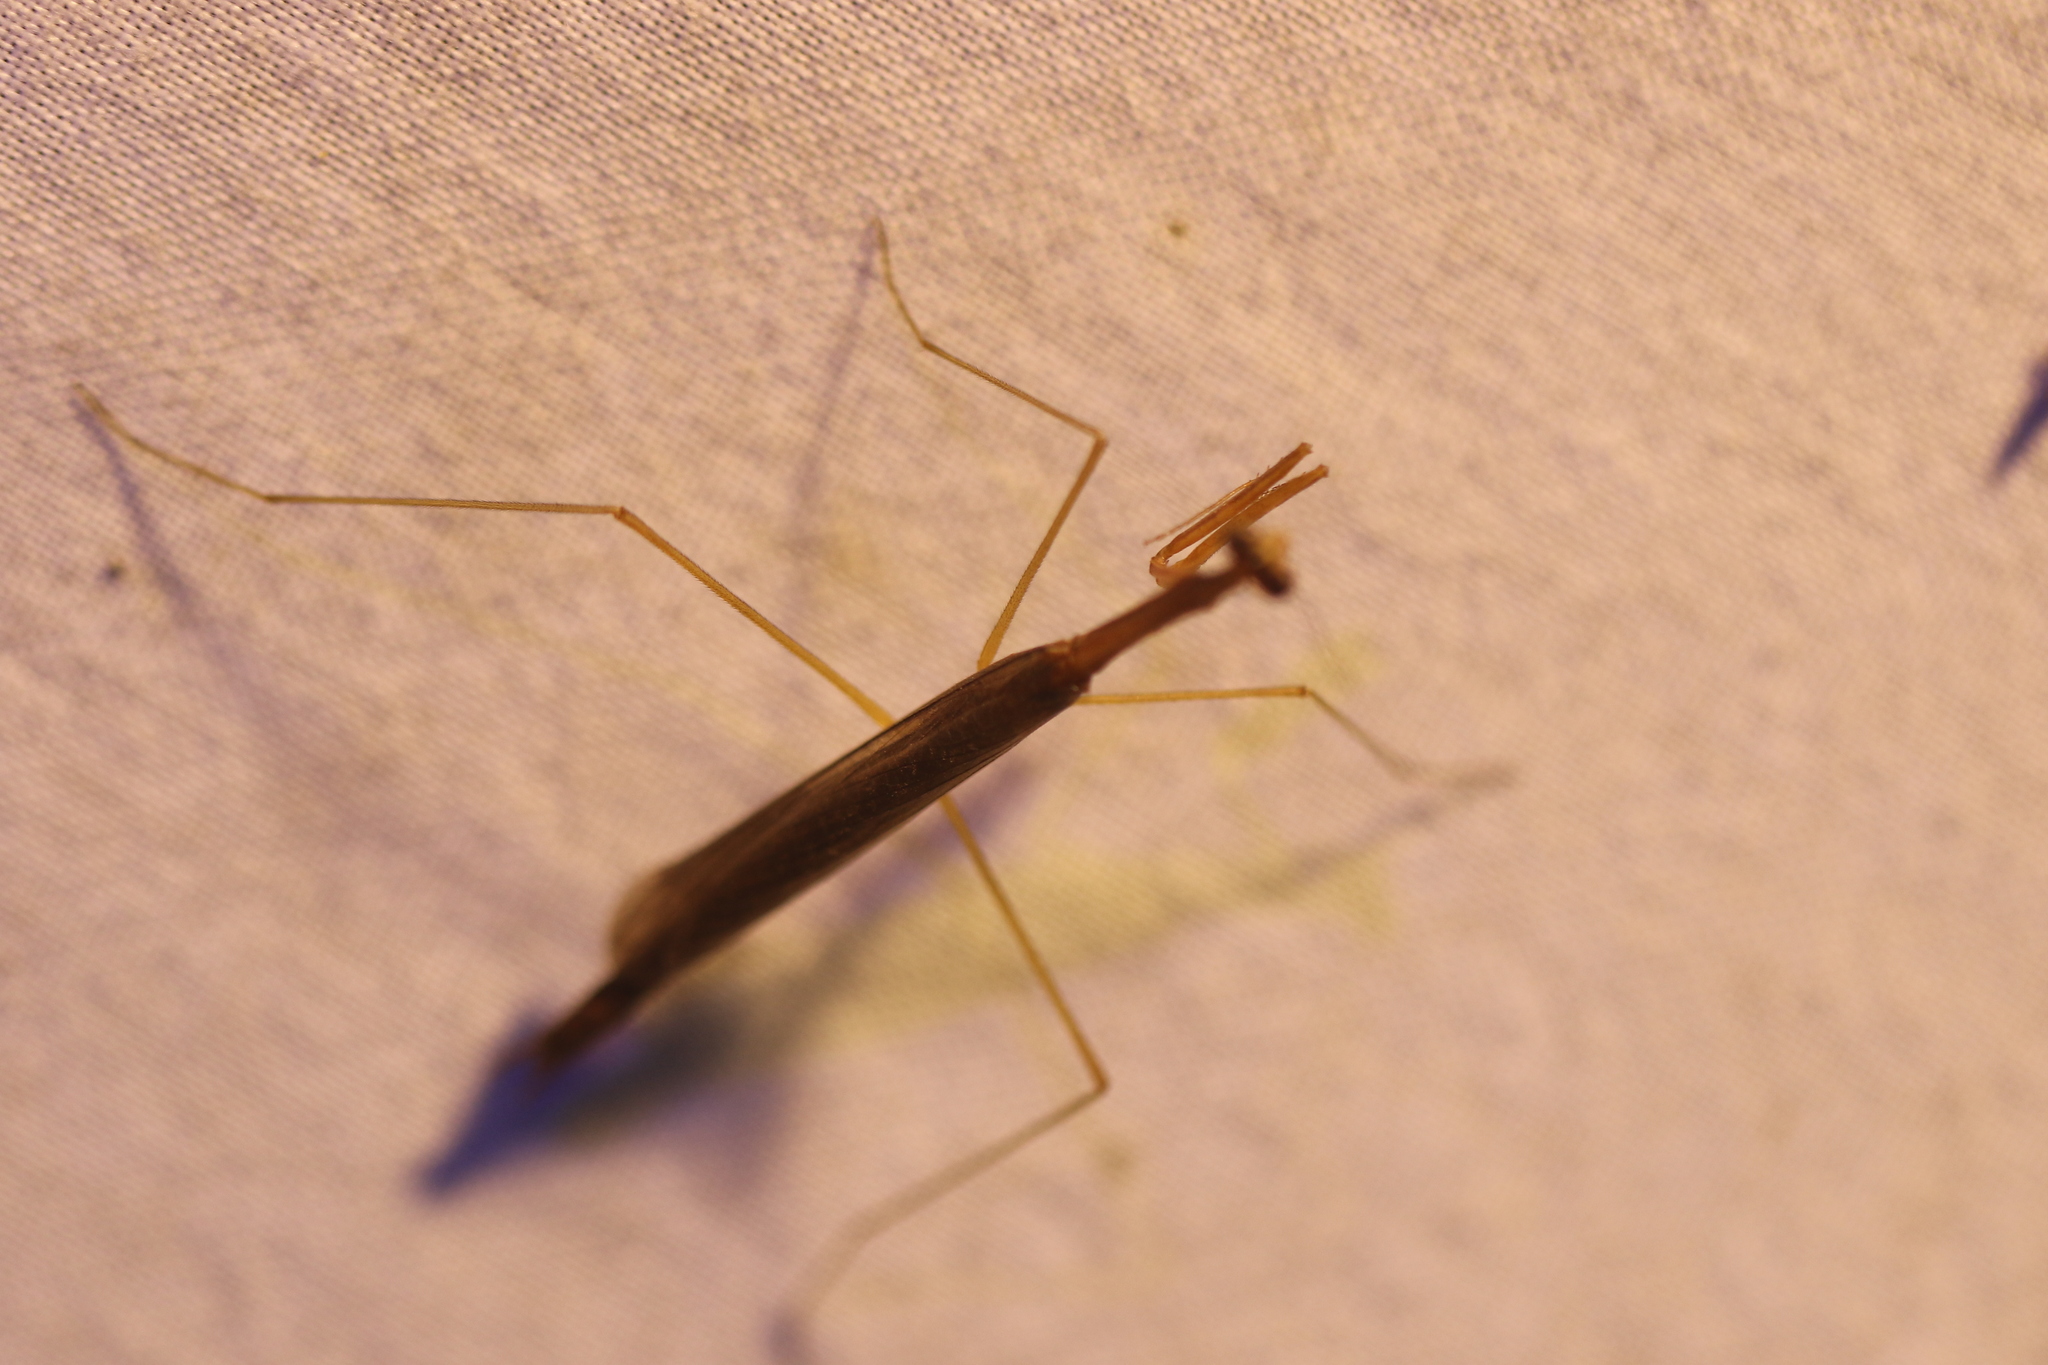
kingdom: Animalia
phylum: Arthropoda
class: Insecta
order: Mantodea
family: Thespidae
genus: Musonia
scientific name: Musonia surinama
